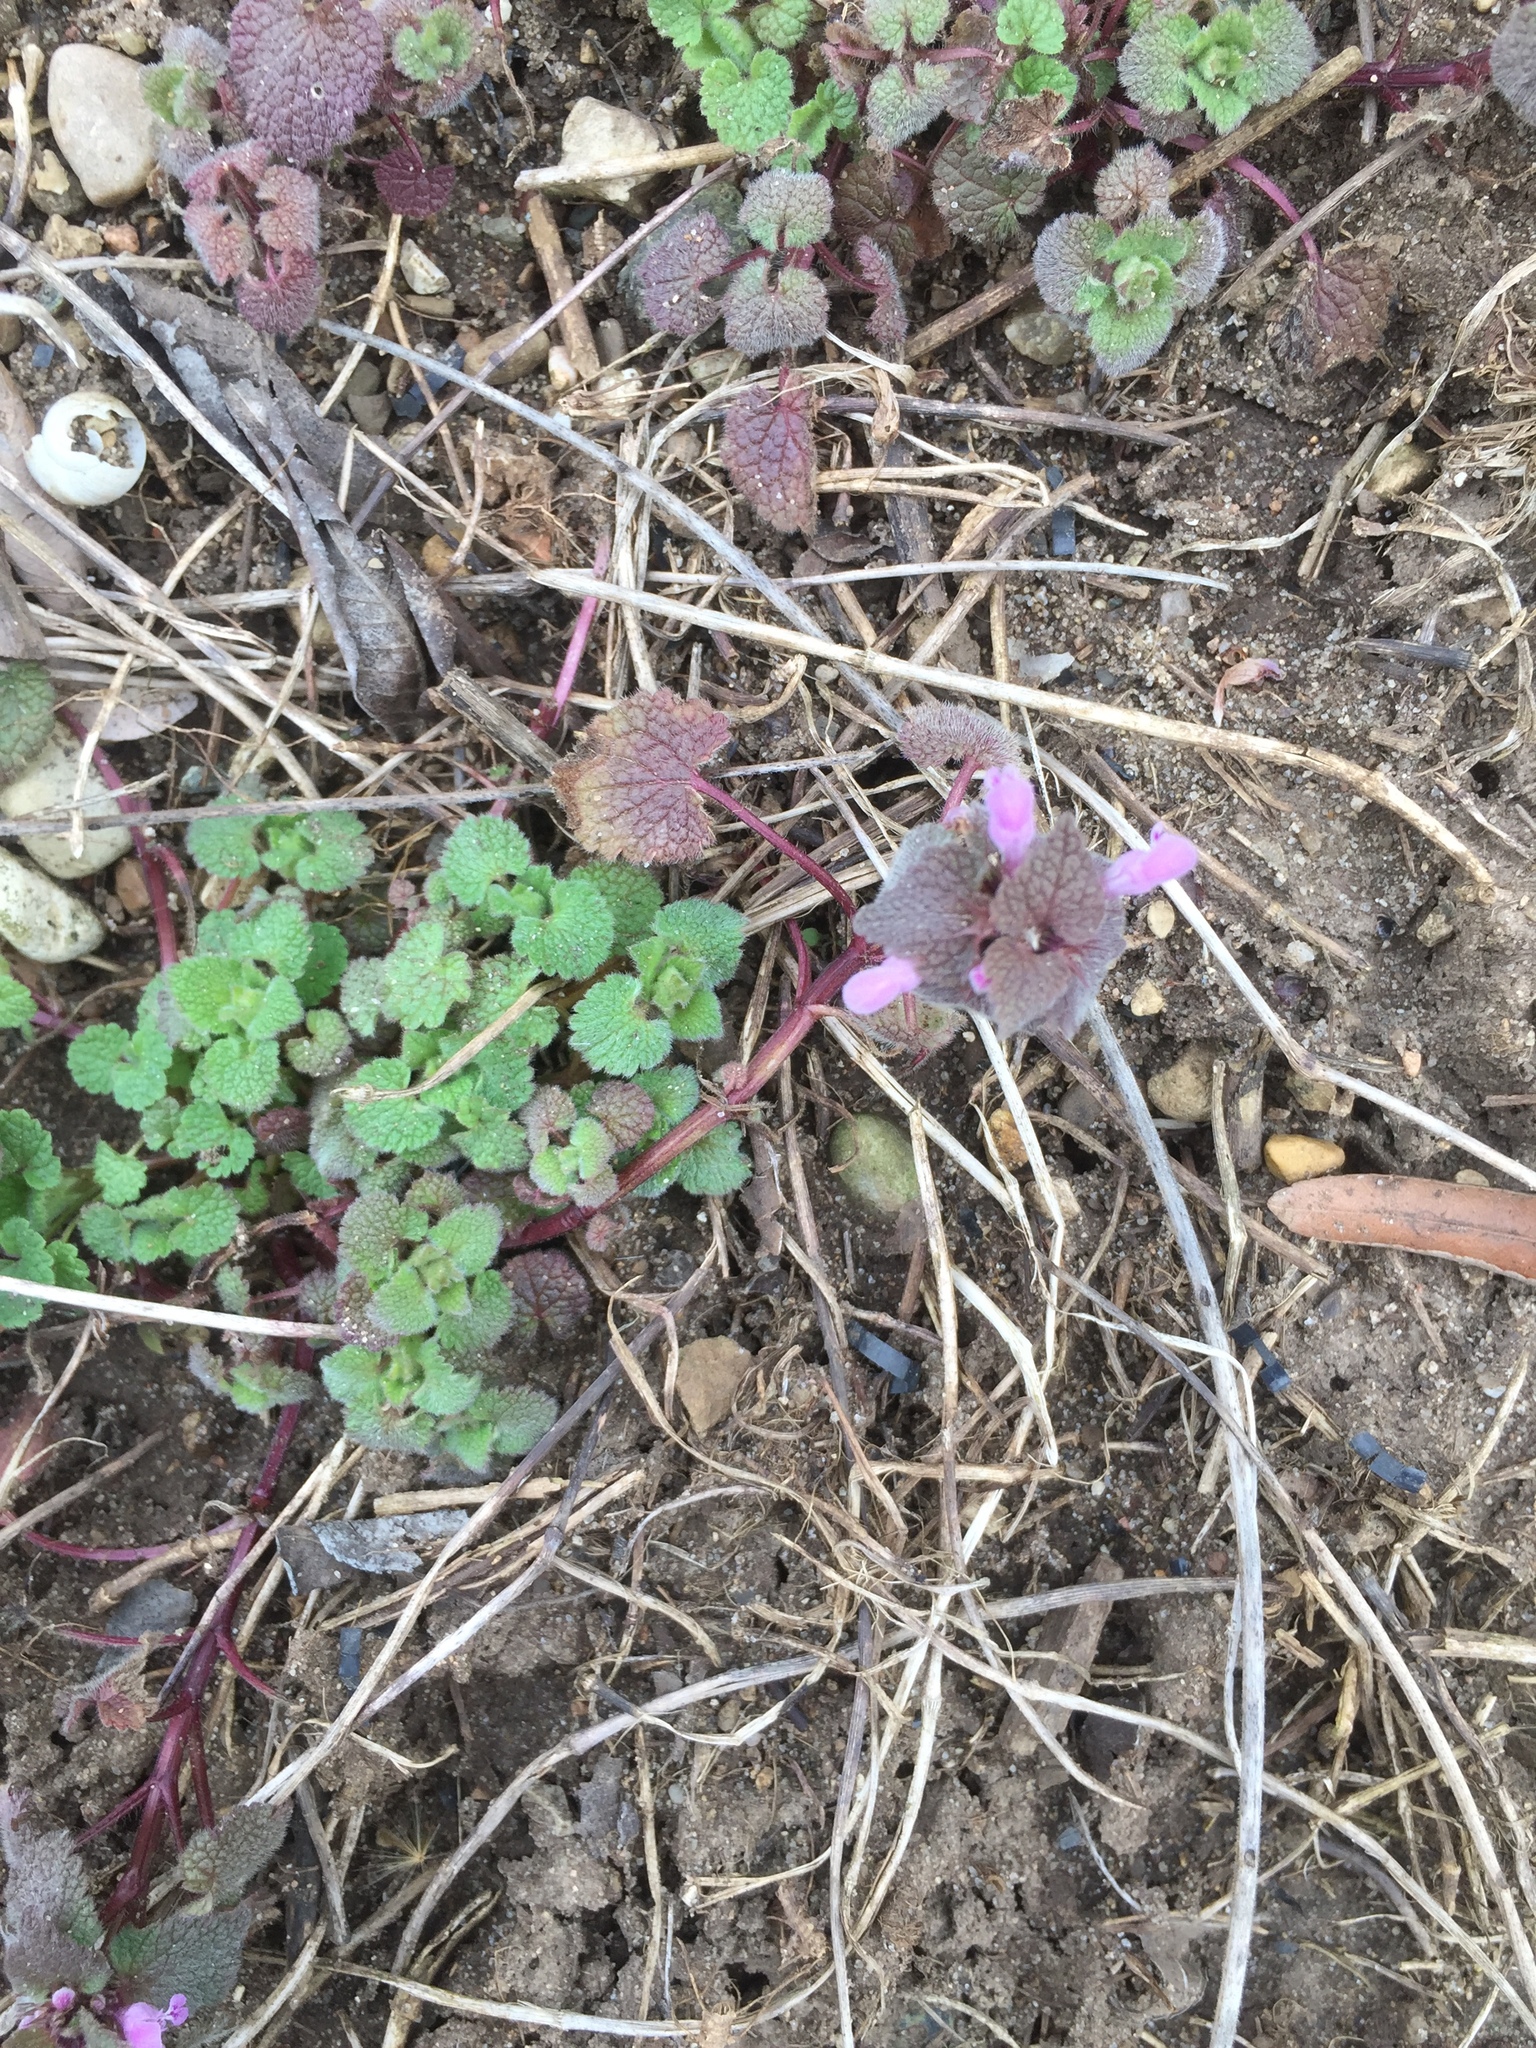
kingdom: Plantae
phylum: Tracheophyta
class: Magnoliopsida
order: Lamiales
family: Lamiaceae
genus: Lamium
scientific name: Lamium purpureum
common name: Red dead-nettle
